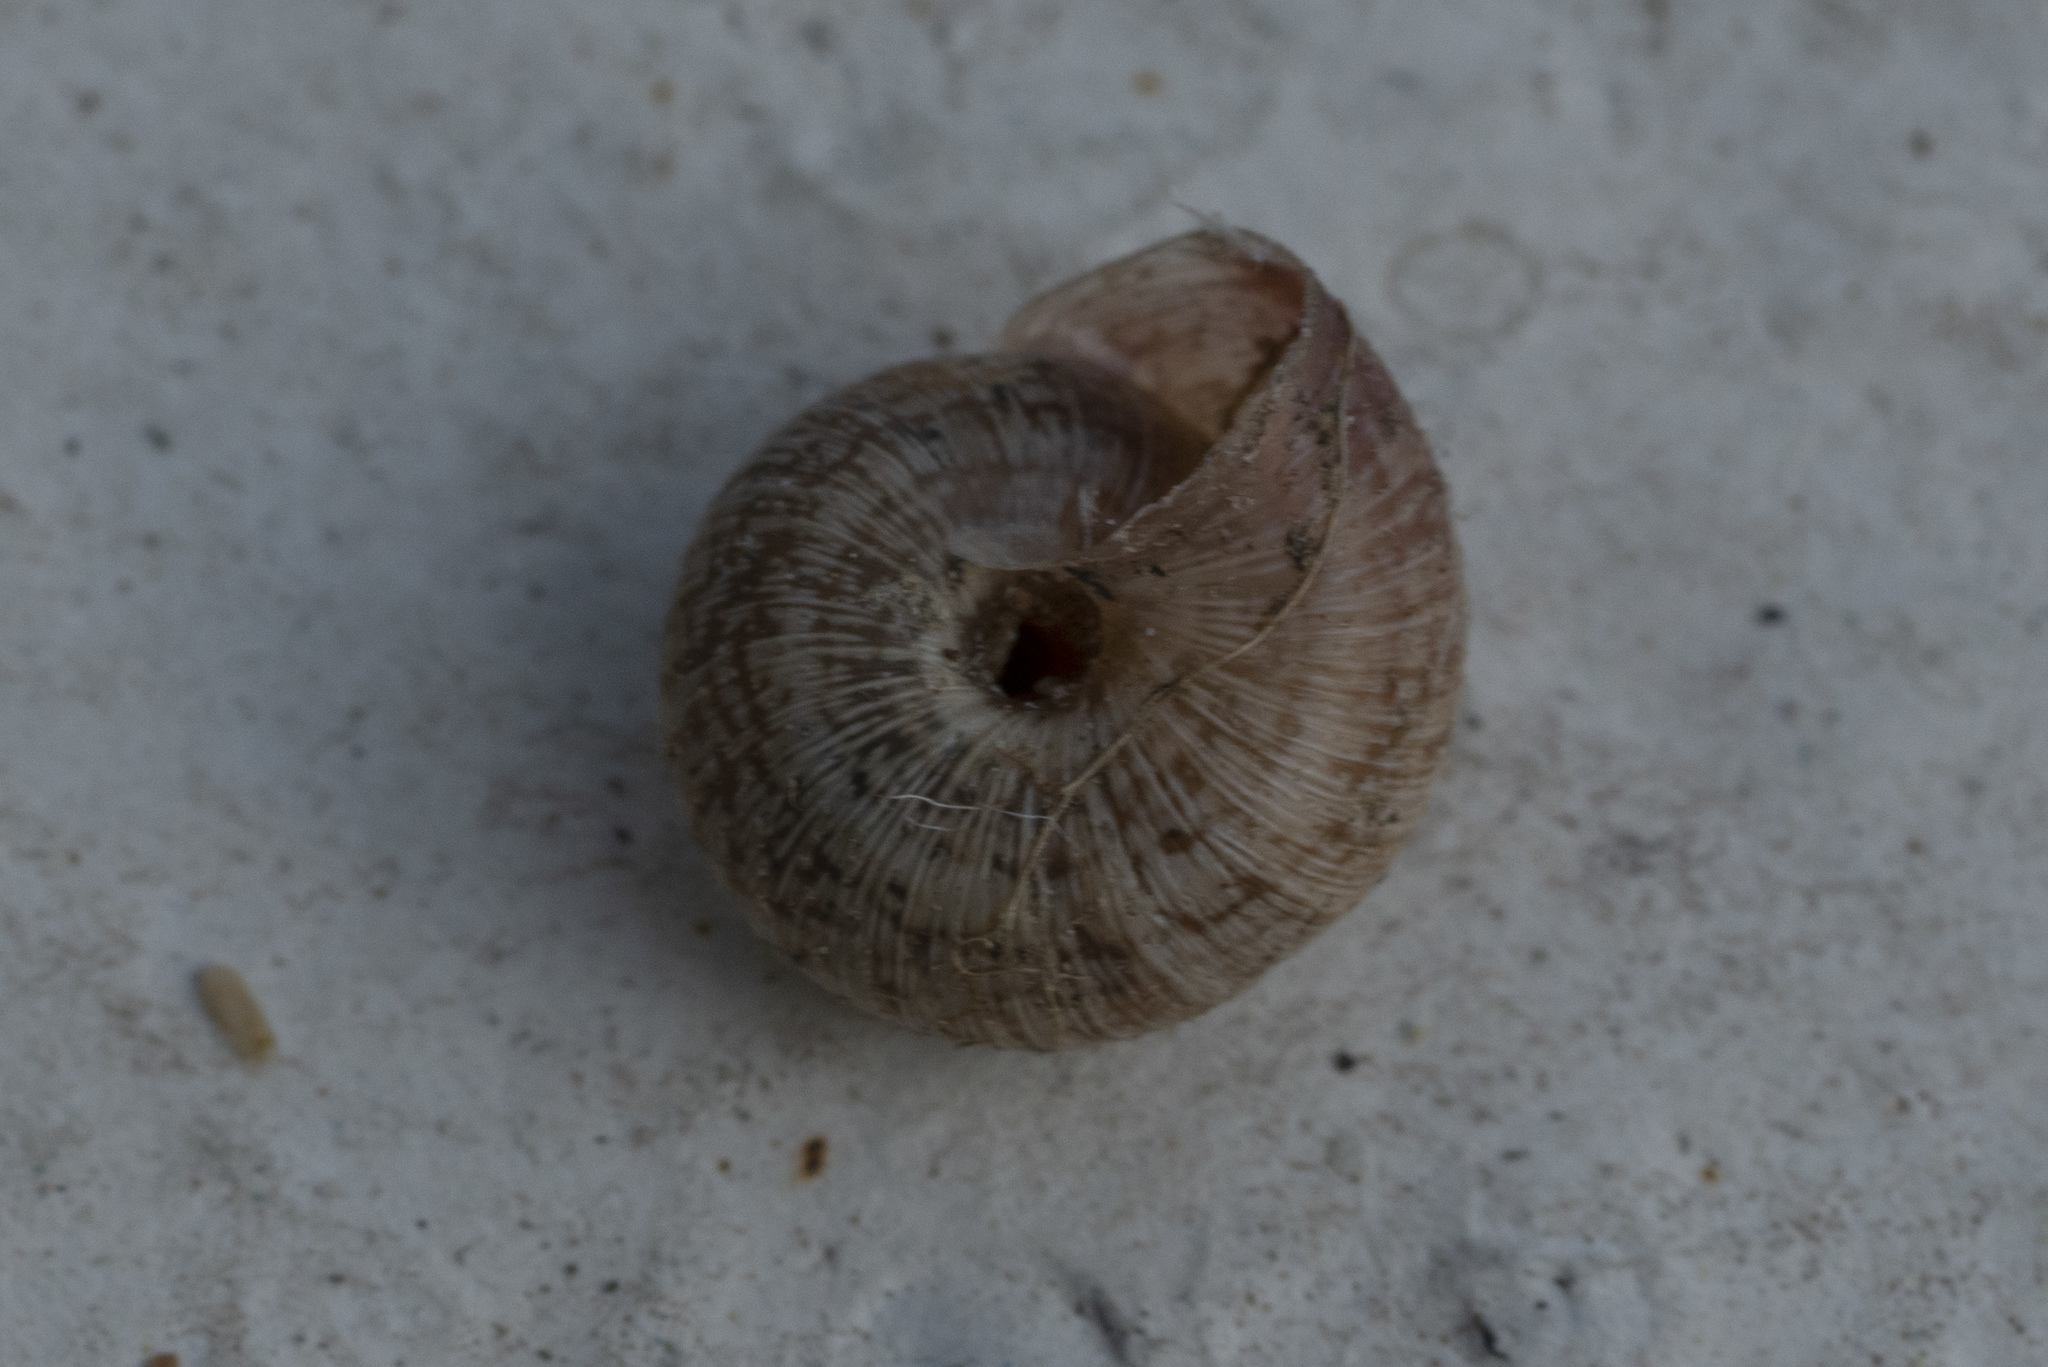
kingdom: Animalia
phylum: Mollusca
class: Gastropoda
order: Stylommatophora
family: Geomitridae
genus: Xerotricha
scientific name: Xerotricha conspurcata
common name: Snail
